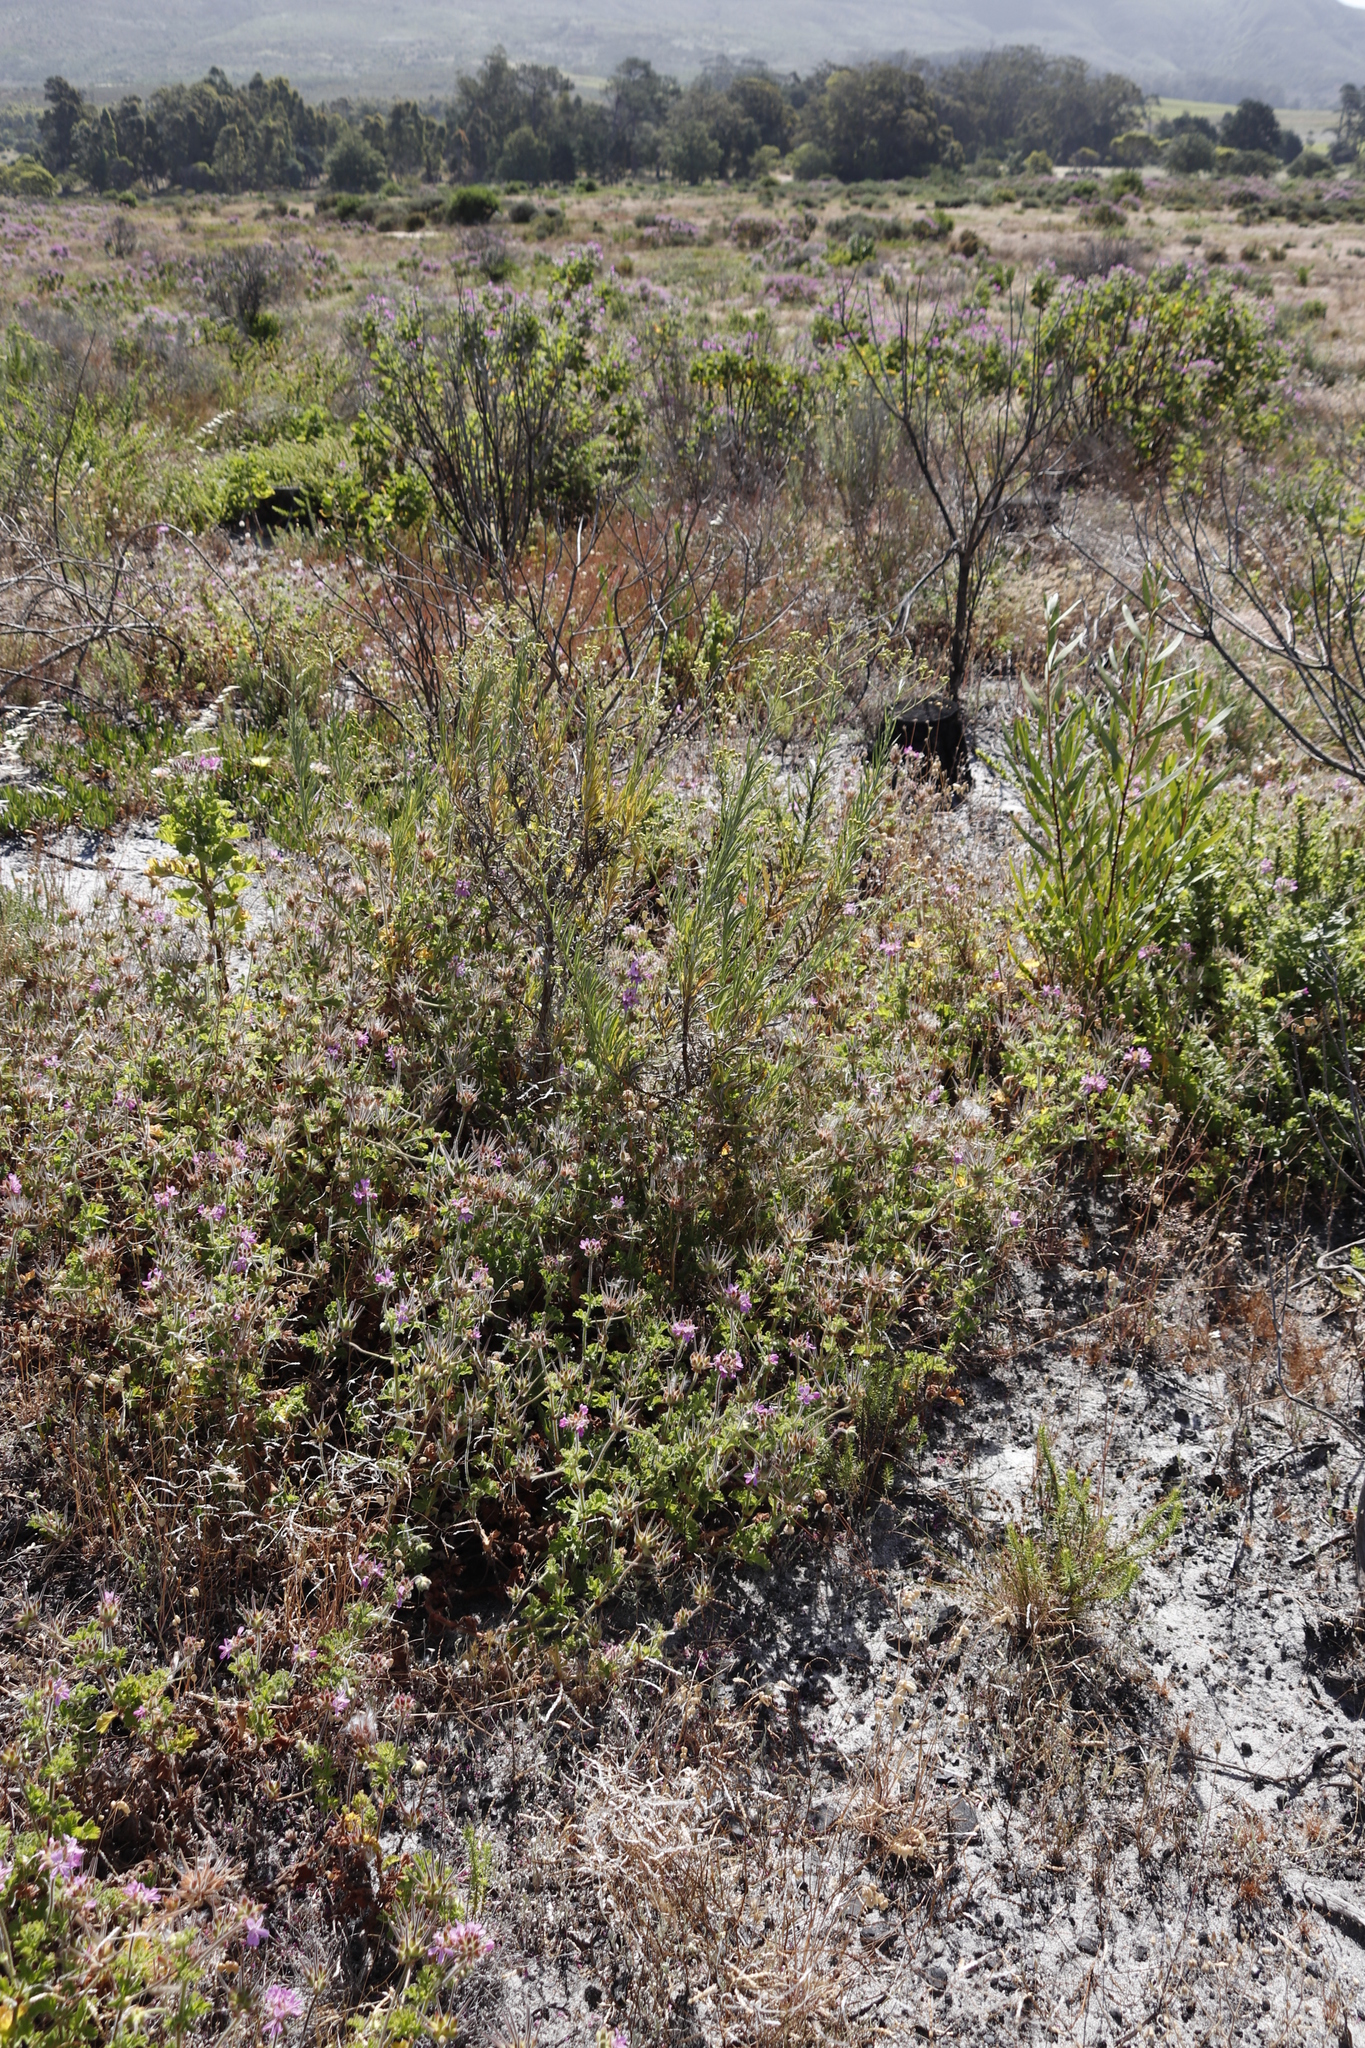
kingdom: Plantae
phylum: Tracheophyta
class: Magnoliopsida
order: Geraniales
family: Geraniaceae
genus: Pelargonium
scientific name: Pelargonium capitatum
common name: Rose scented geranium
